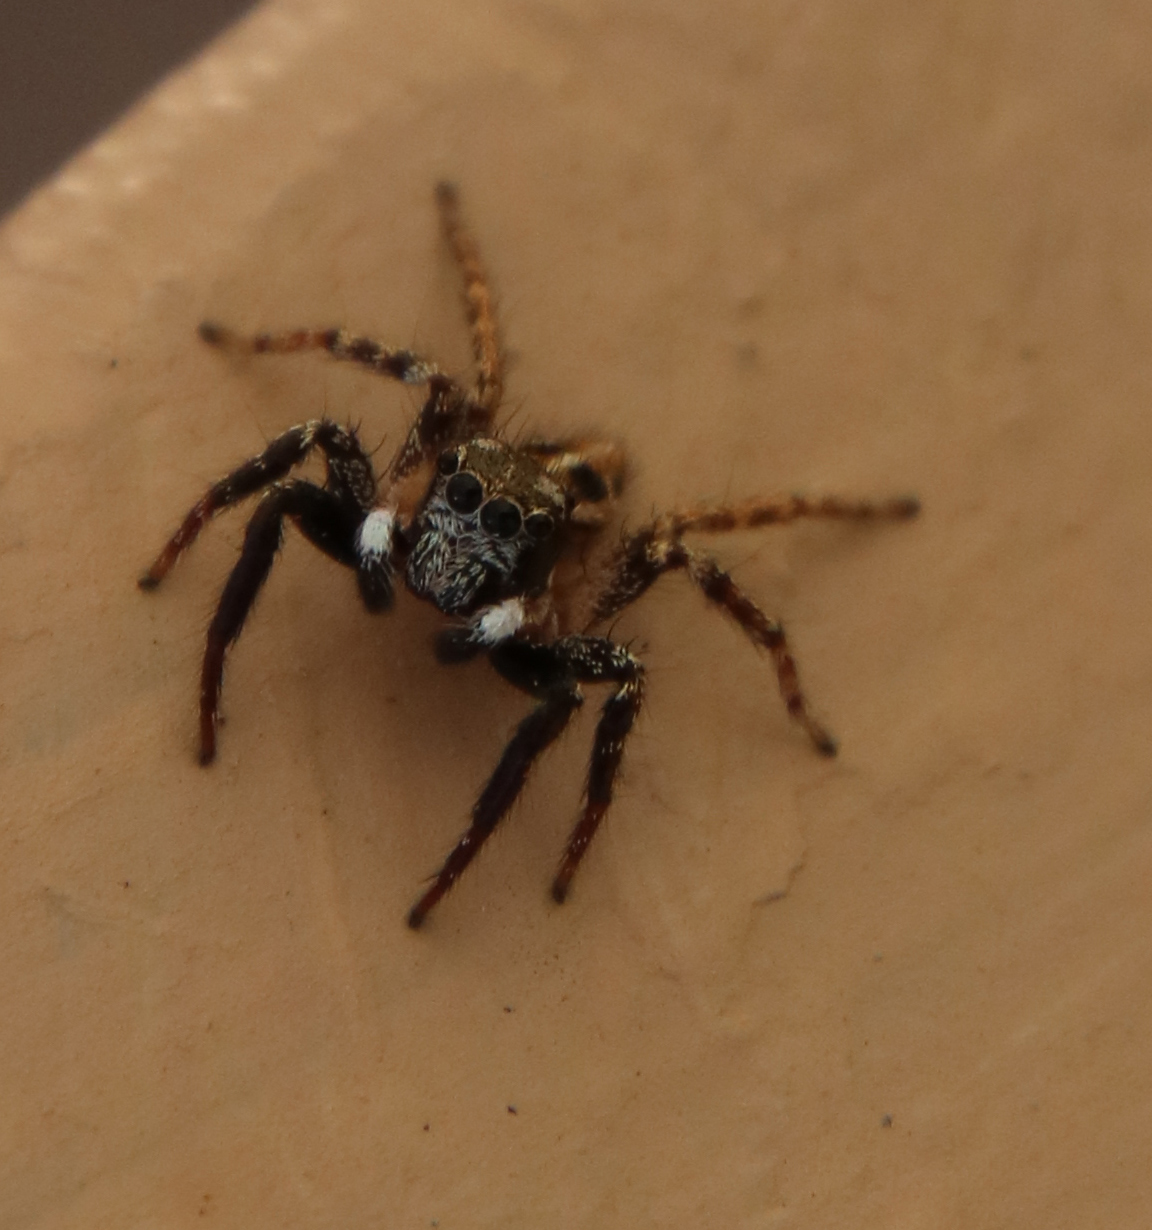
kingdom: Animalia
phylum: Arthropoda
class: Arachnida
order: Araneae
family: Salticidae
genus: Anasaitis
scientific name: Anasaitis canosa
